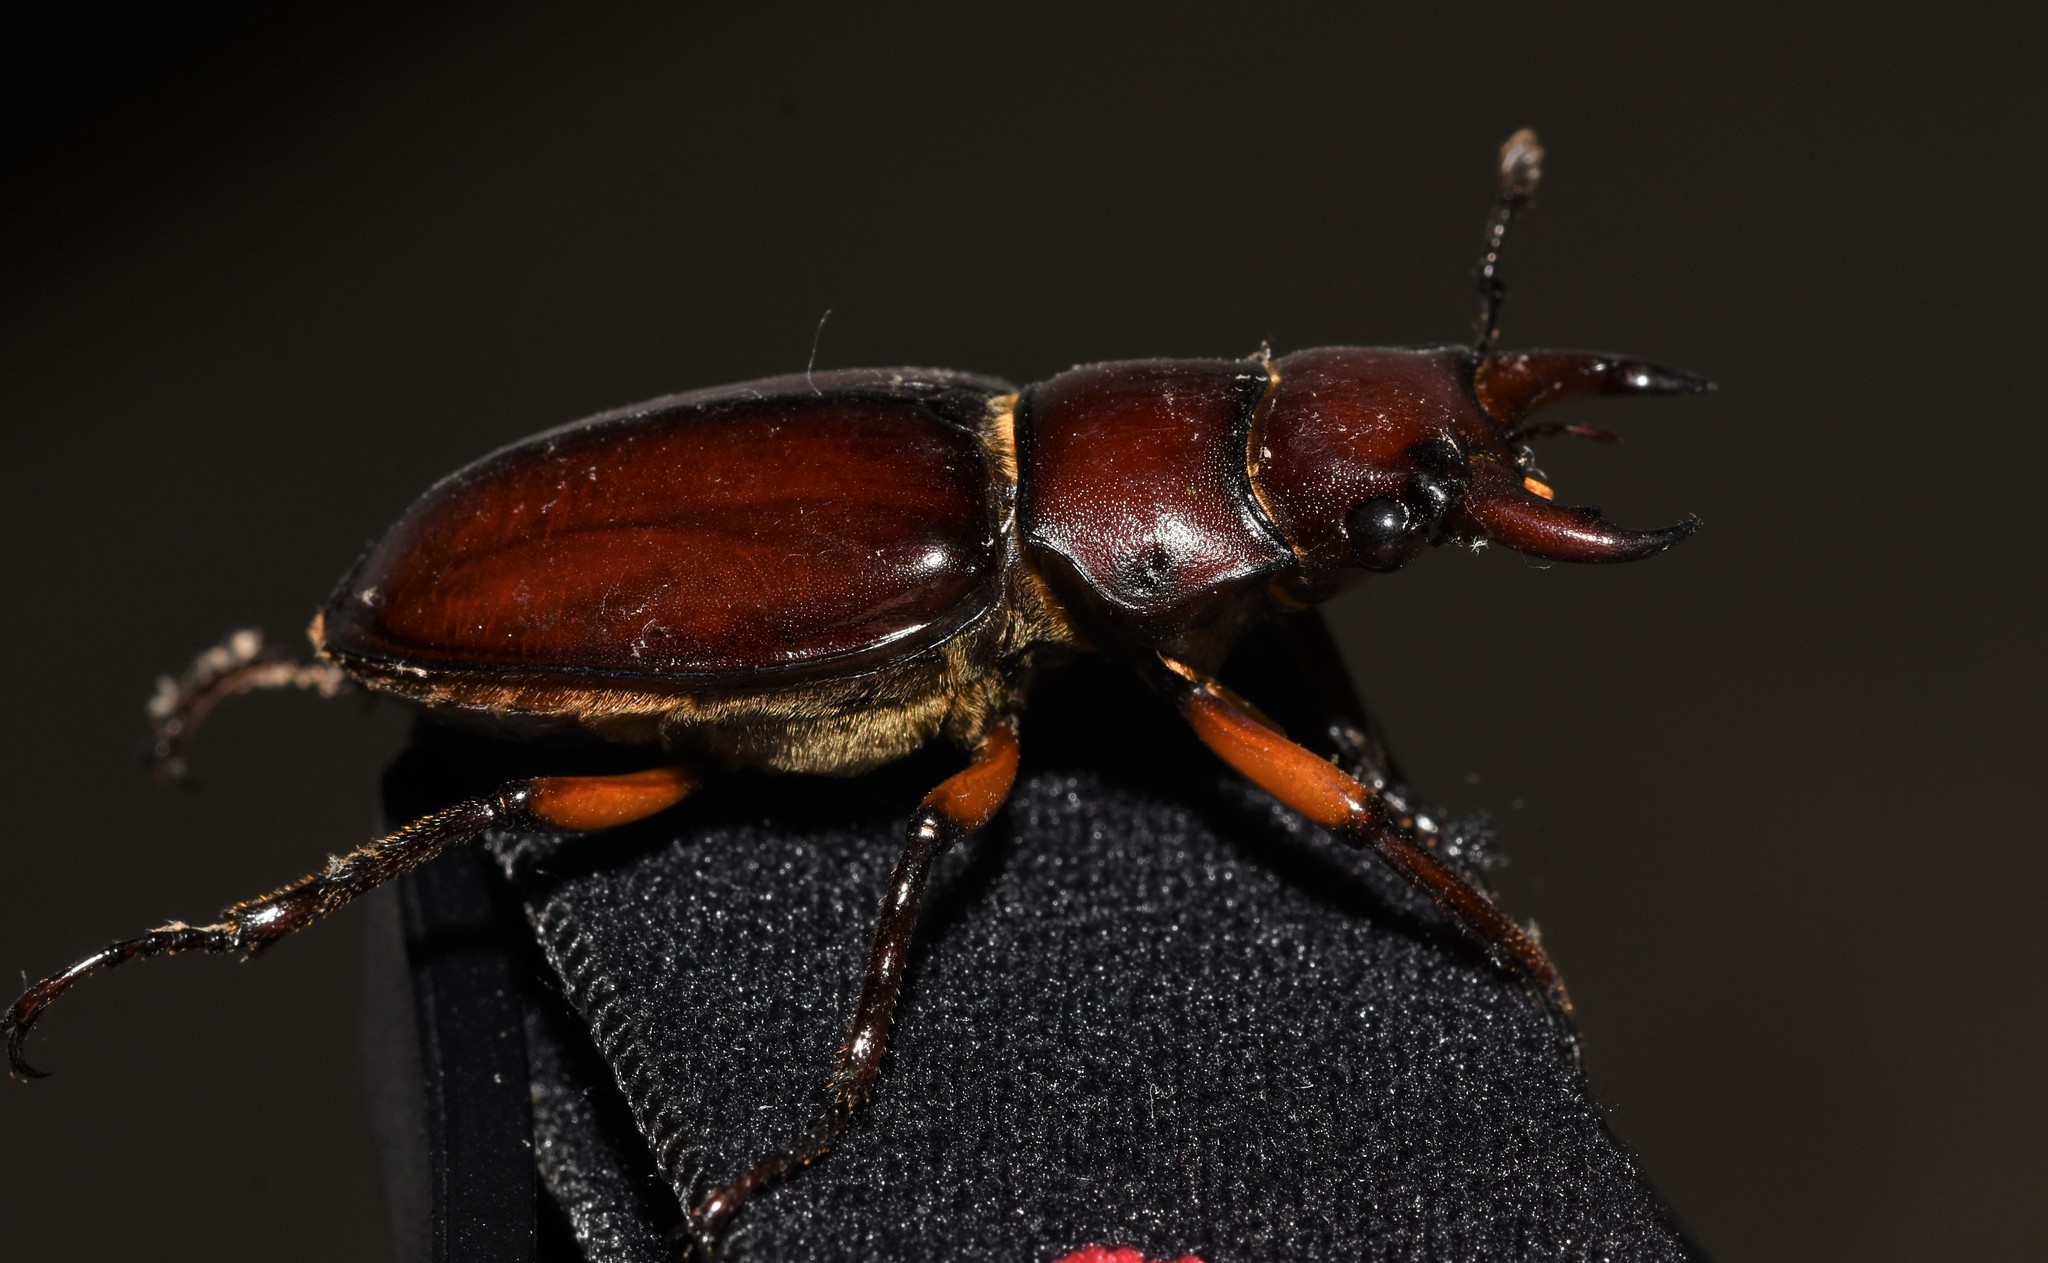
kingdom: Animalia
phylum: Arthropoda
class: Insecta
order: Coleoptera
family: Lucanidae
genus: Lucanus
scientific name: Lucanus capreolus
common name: Stag beetle
